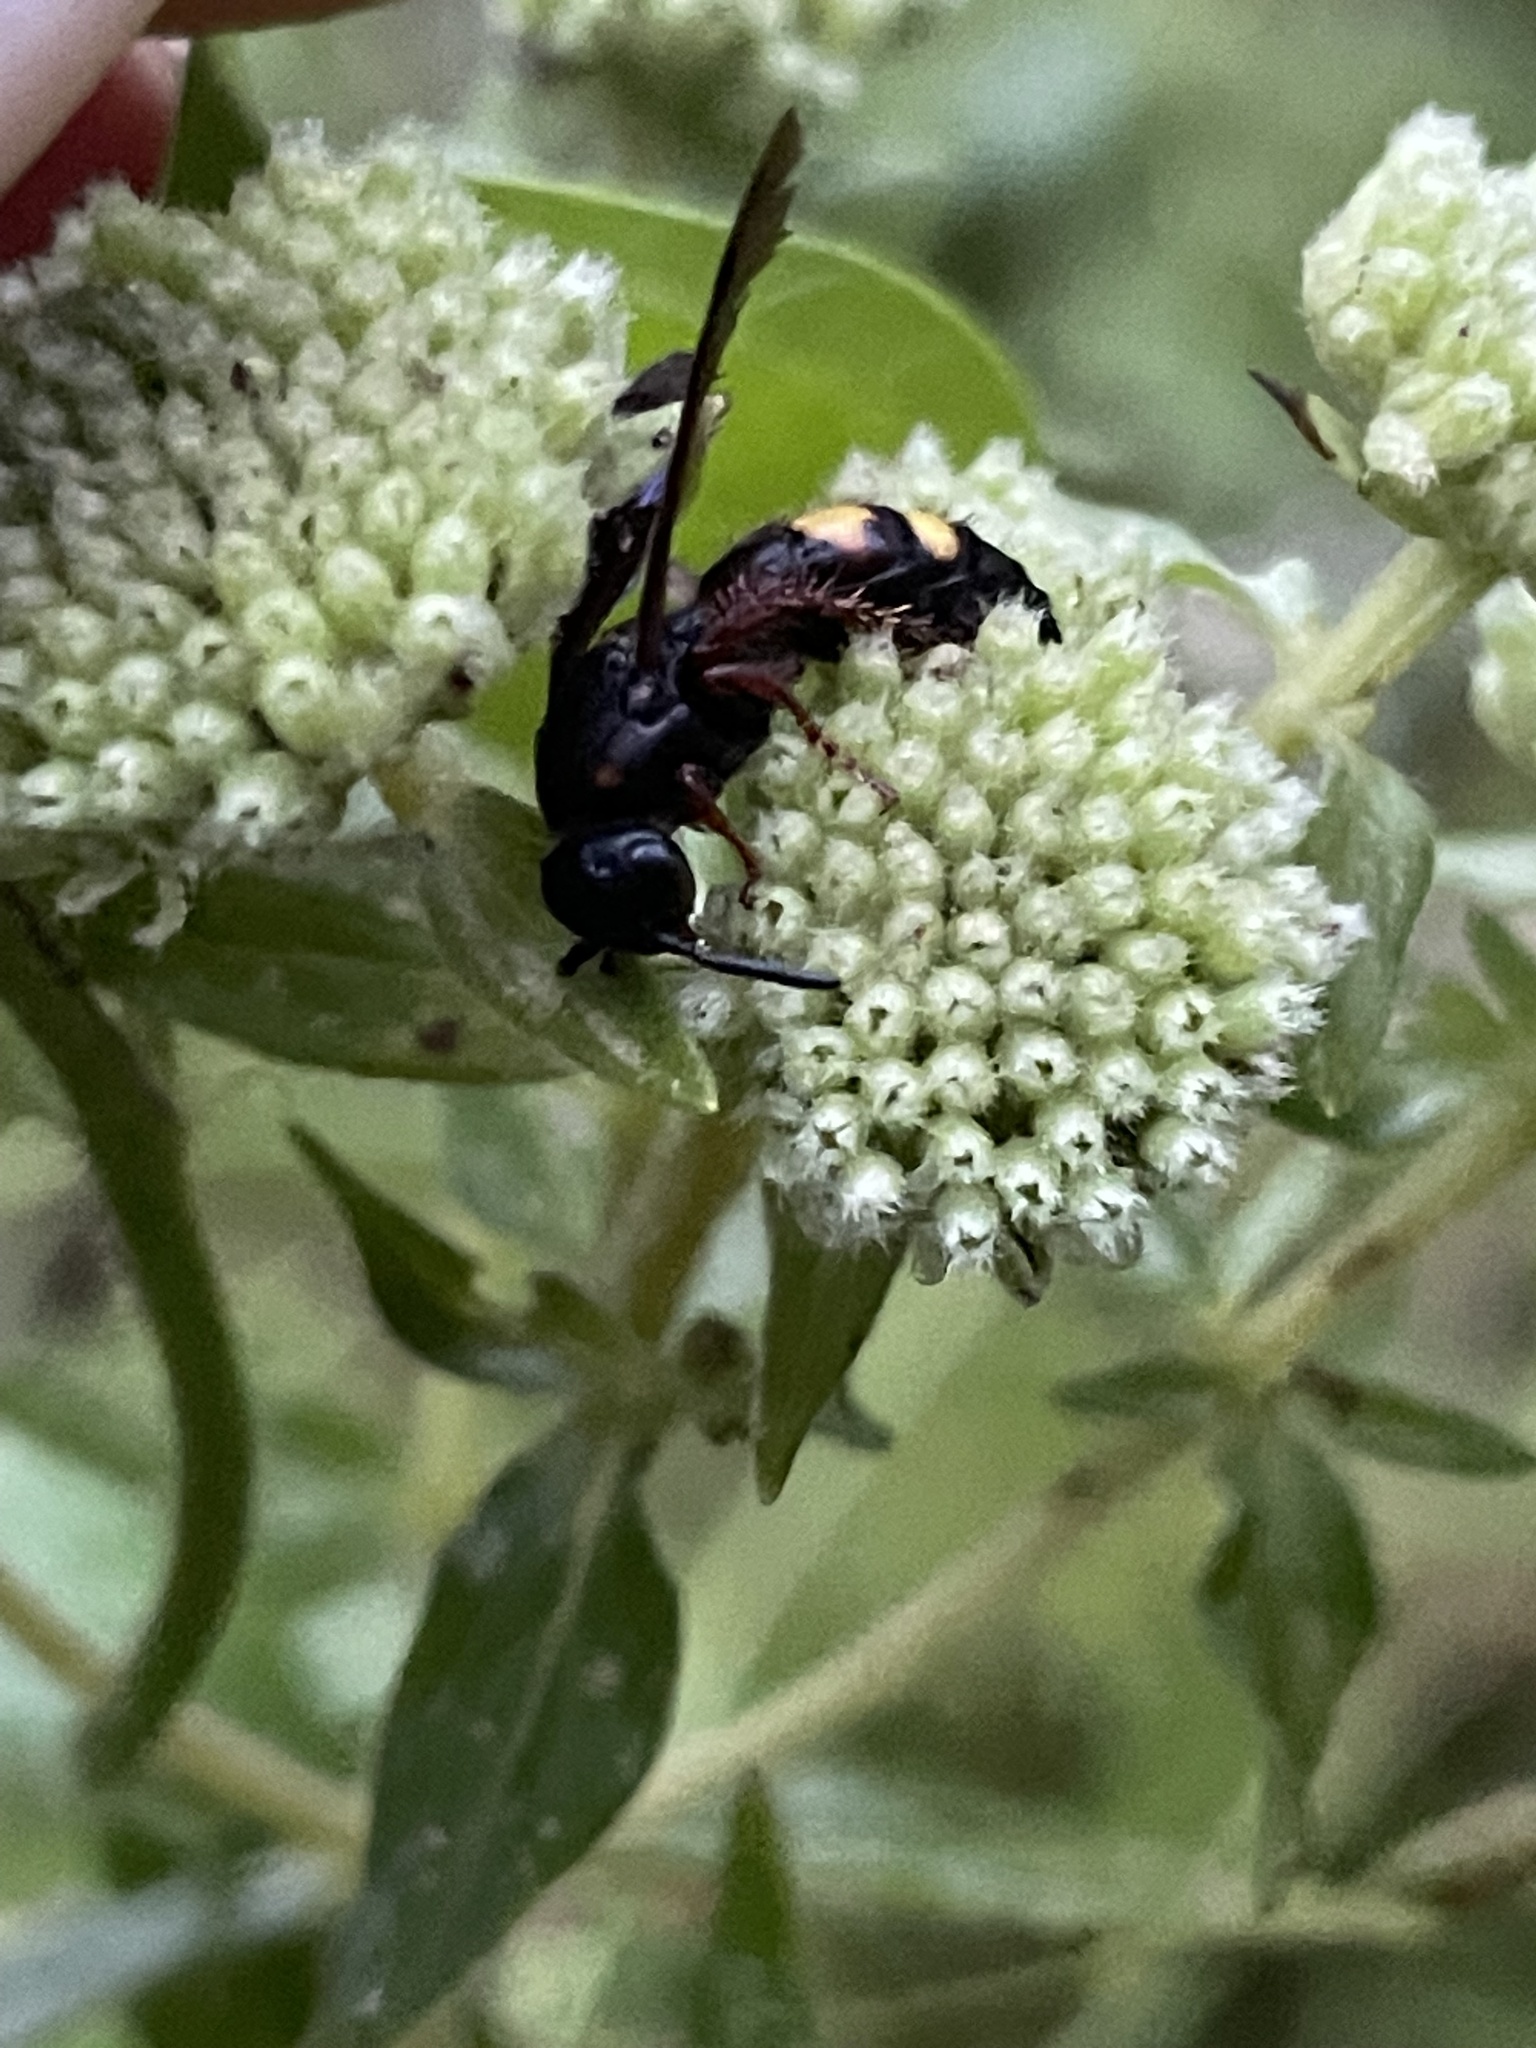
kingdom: Animalia
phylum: Arthropoda
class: Insecta
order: Hymenoptera
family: Scoliidae
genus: Scolia
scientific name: Scolia nobilitata
